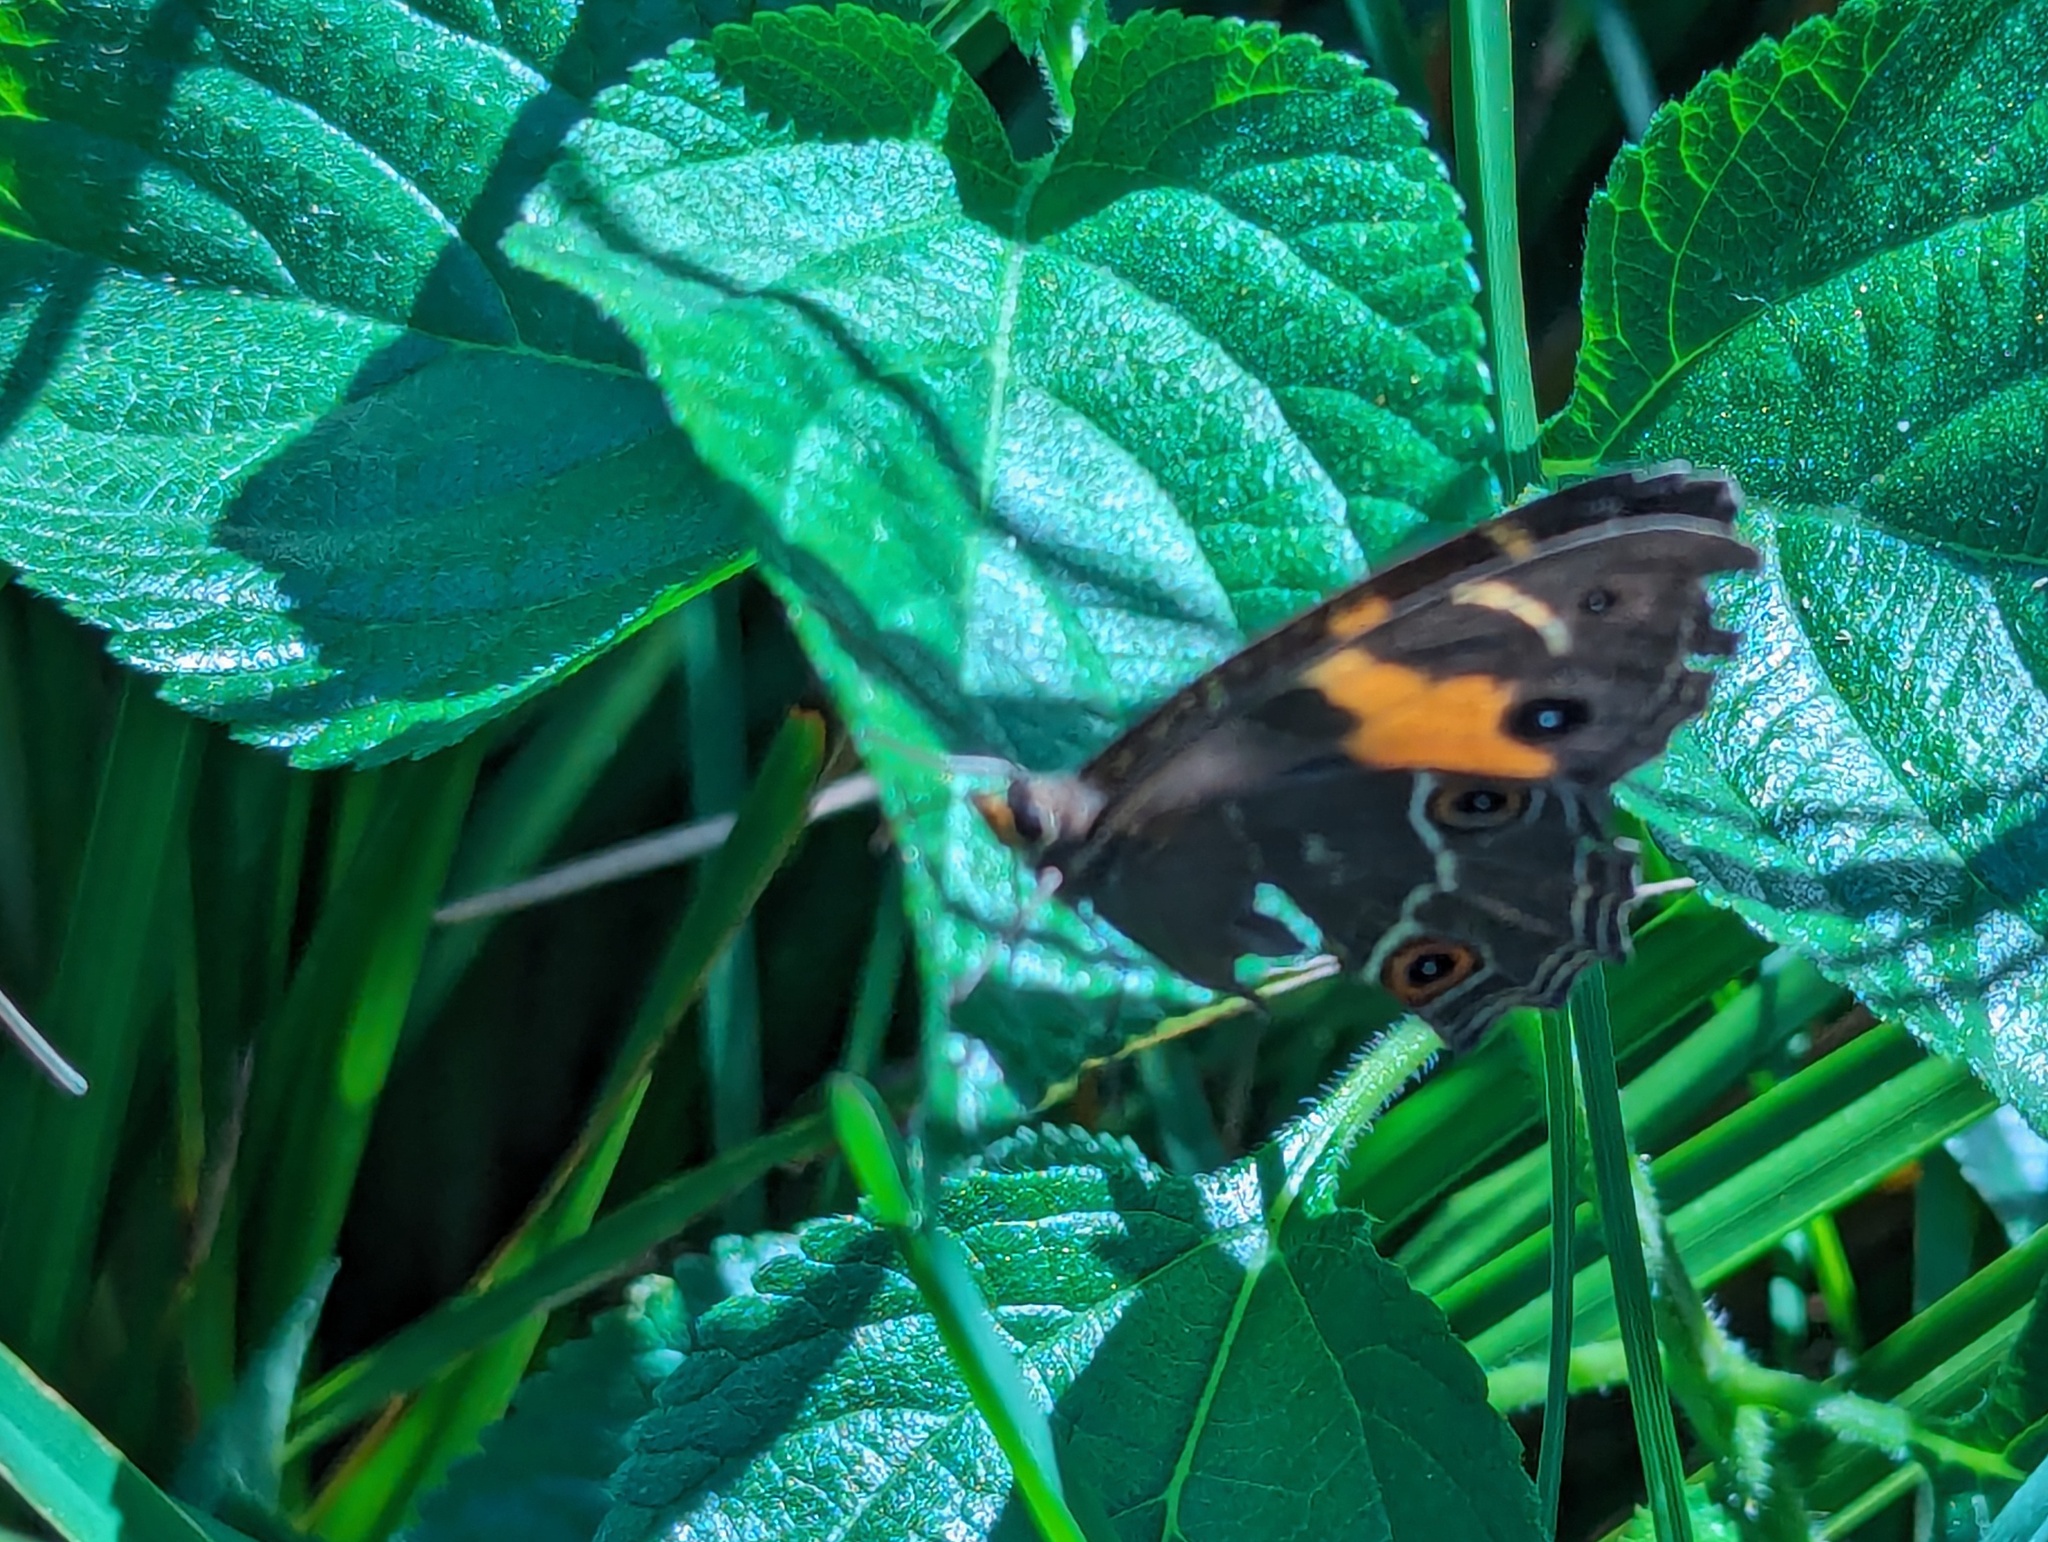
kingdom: Animalia
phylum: Arthropoda
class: Insecta
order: Lepidoptera
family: Nymphalidae
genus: Tisiphone
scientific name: Tisiphone abeona
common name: Swordgrass brown
